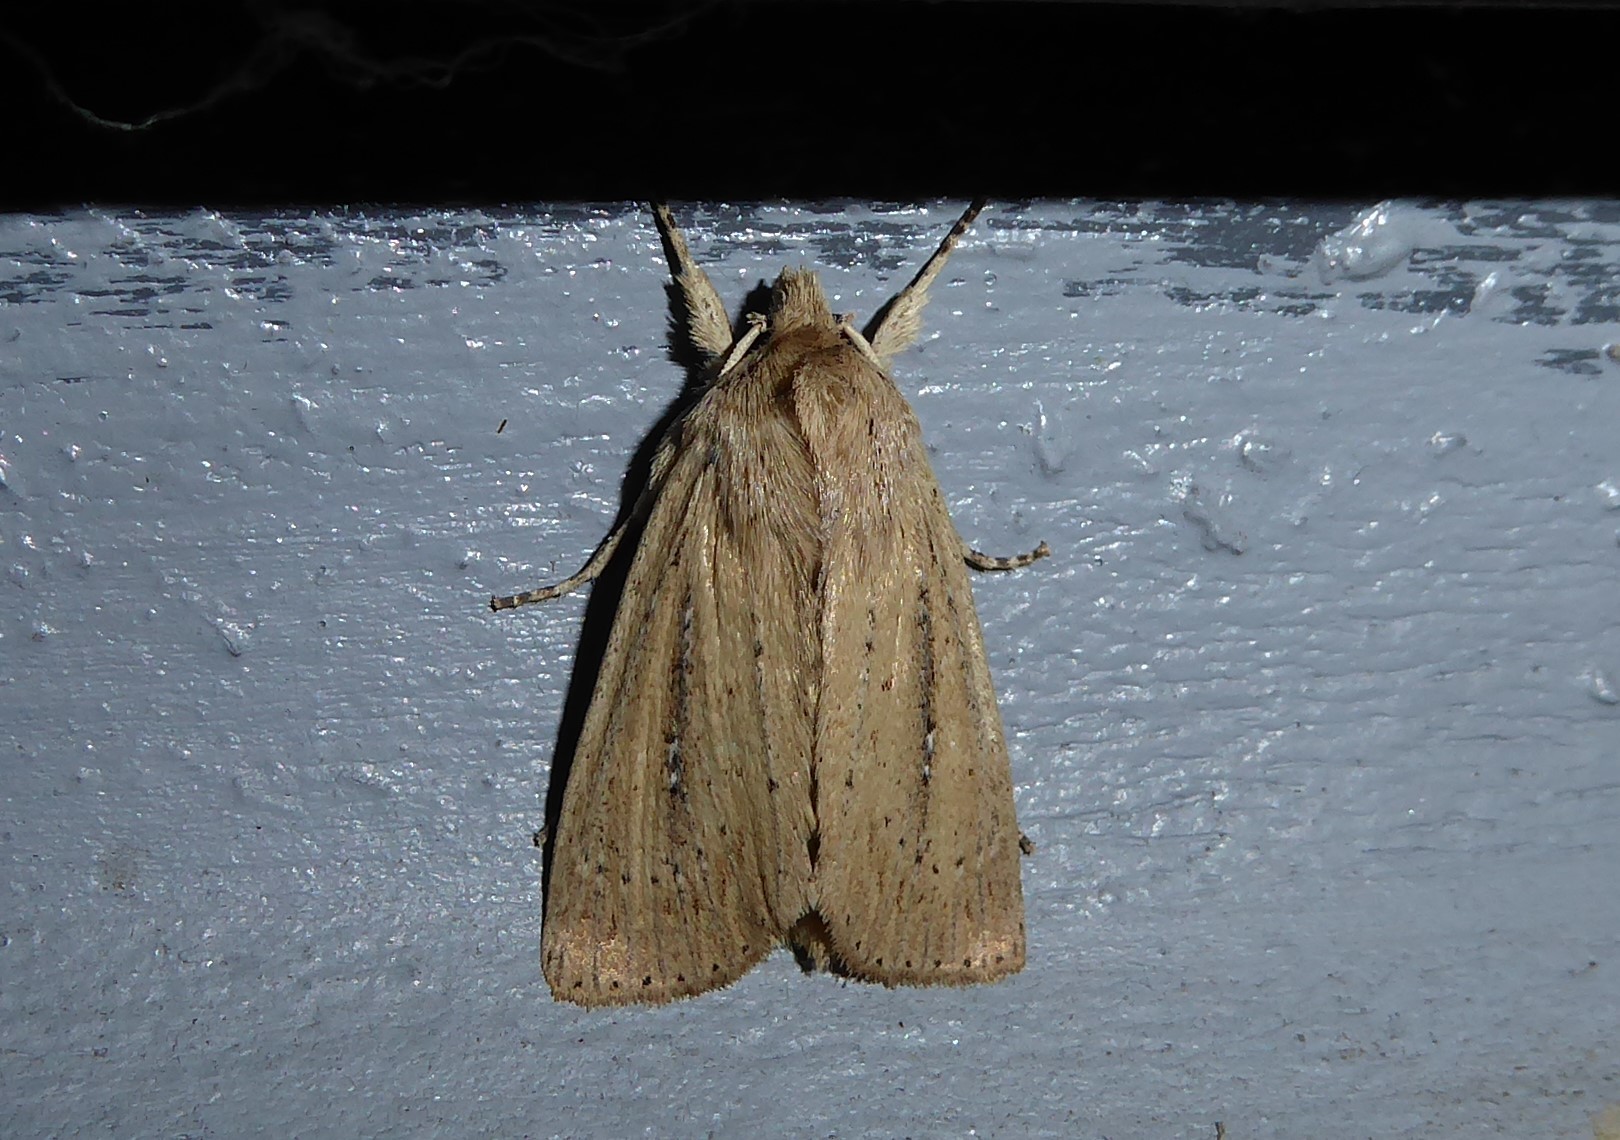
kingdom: Animalia
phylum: Arthropoda
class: Insecta
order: Lepidoptera
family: Noctuidae
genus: Ichneutica
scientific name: Ichneutica
